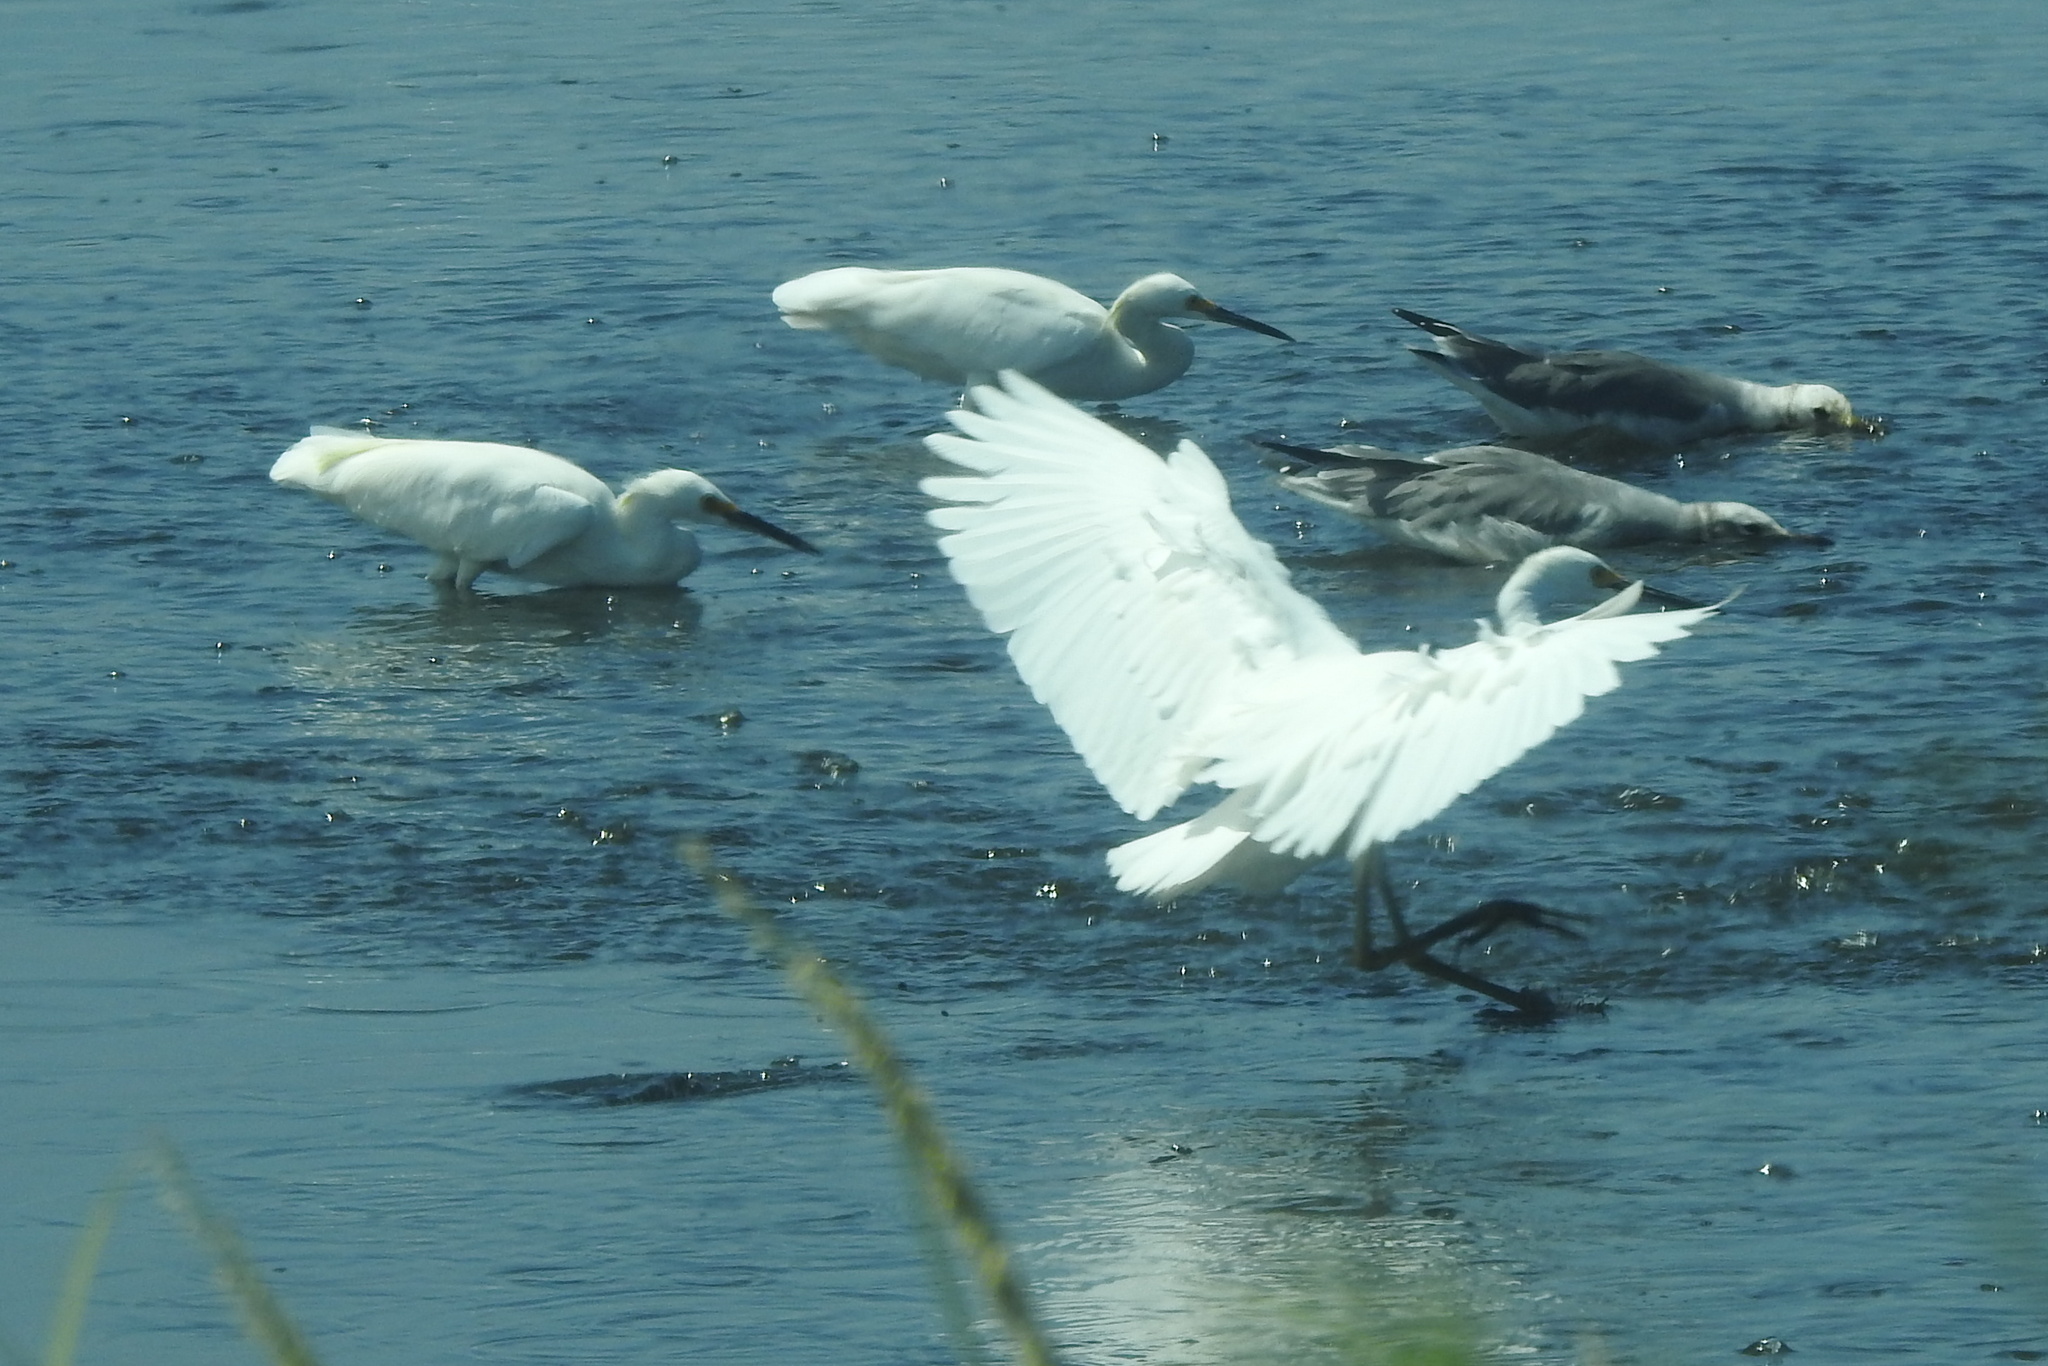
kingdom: Animalia
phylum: Chordata
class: Aves
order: Pelecaniformes
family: Ardeidae
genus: Egretta
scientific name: Egretta thula
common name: Snowy egret
